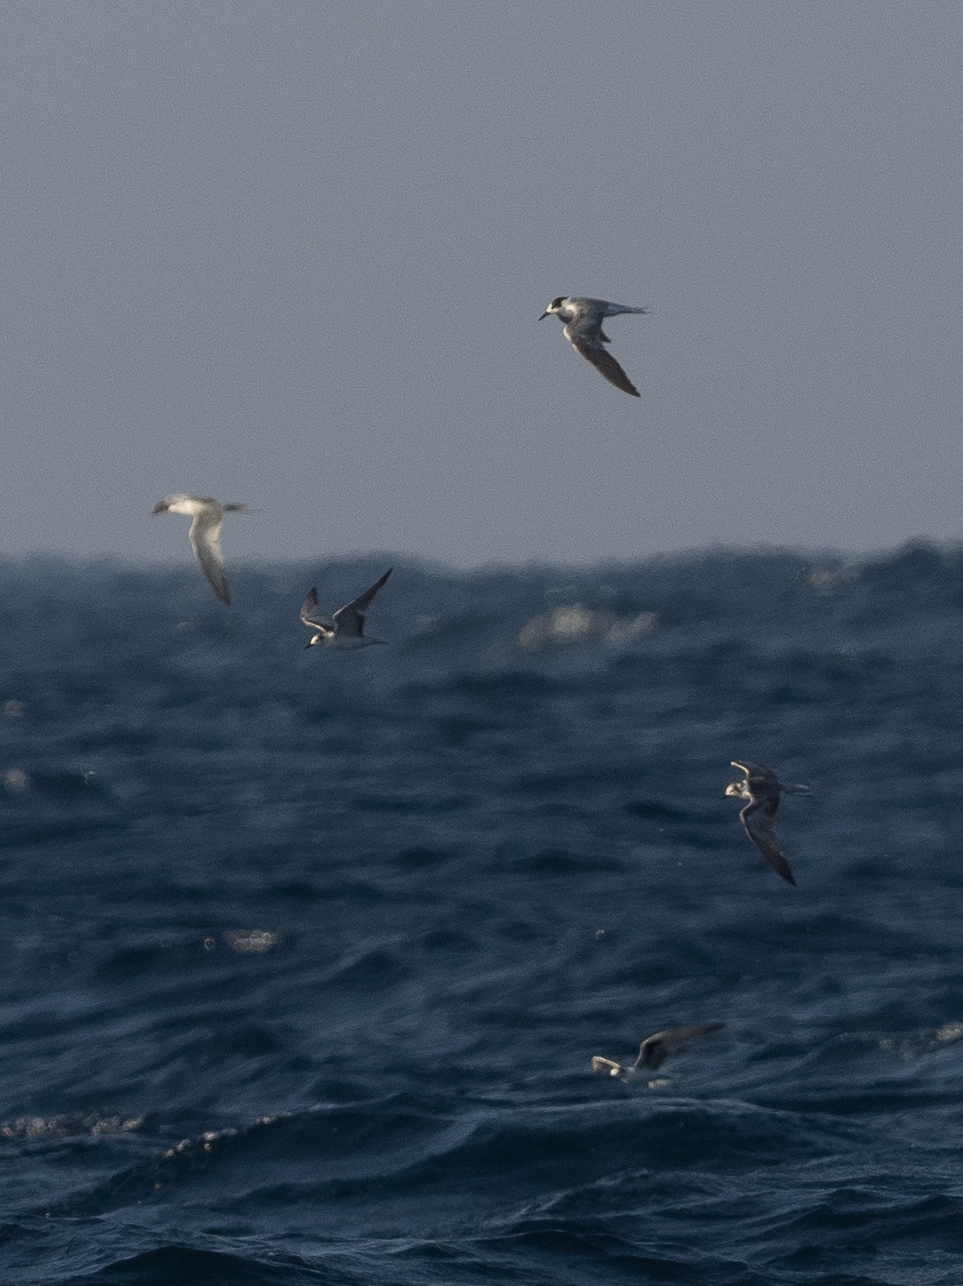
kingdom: Animalia
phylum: Chordata
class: Aves
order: Charadriiformes
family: Laridae
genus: Onychoprion
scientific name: Onychoprion fuscatus
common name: Sooty tern
